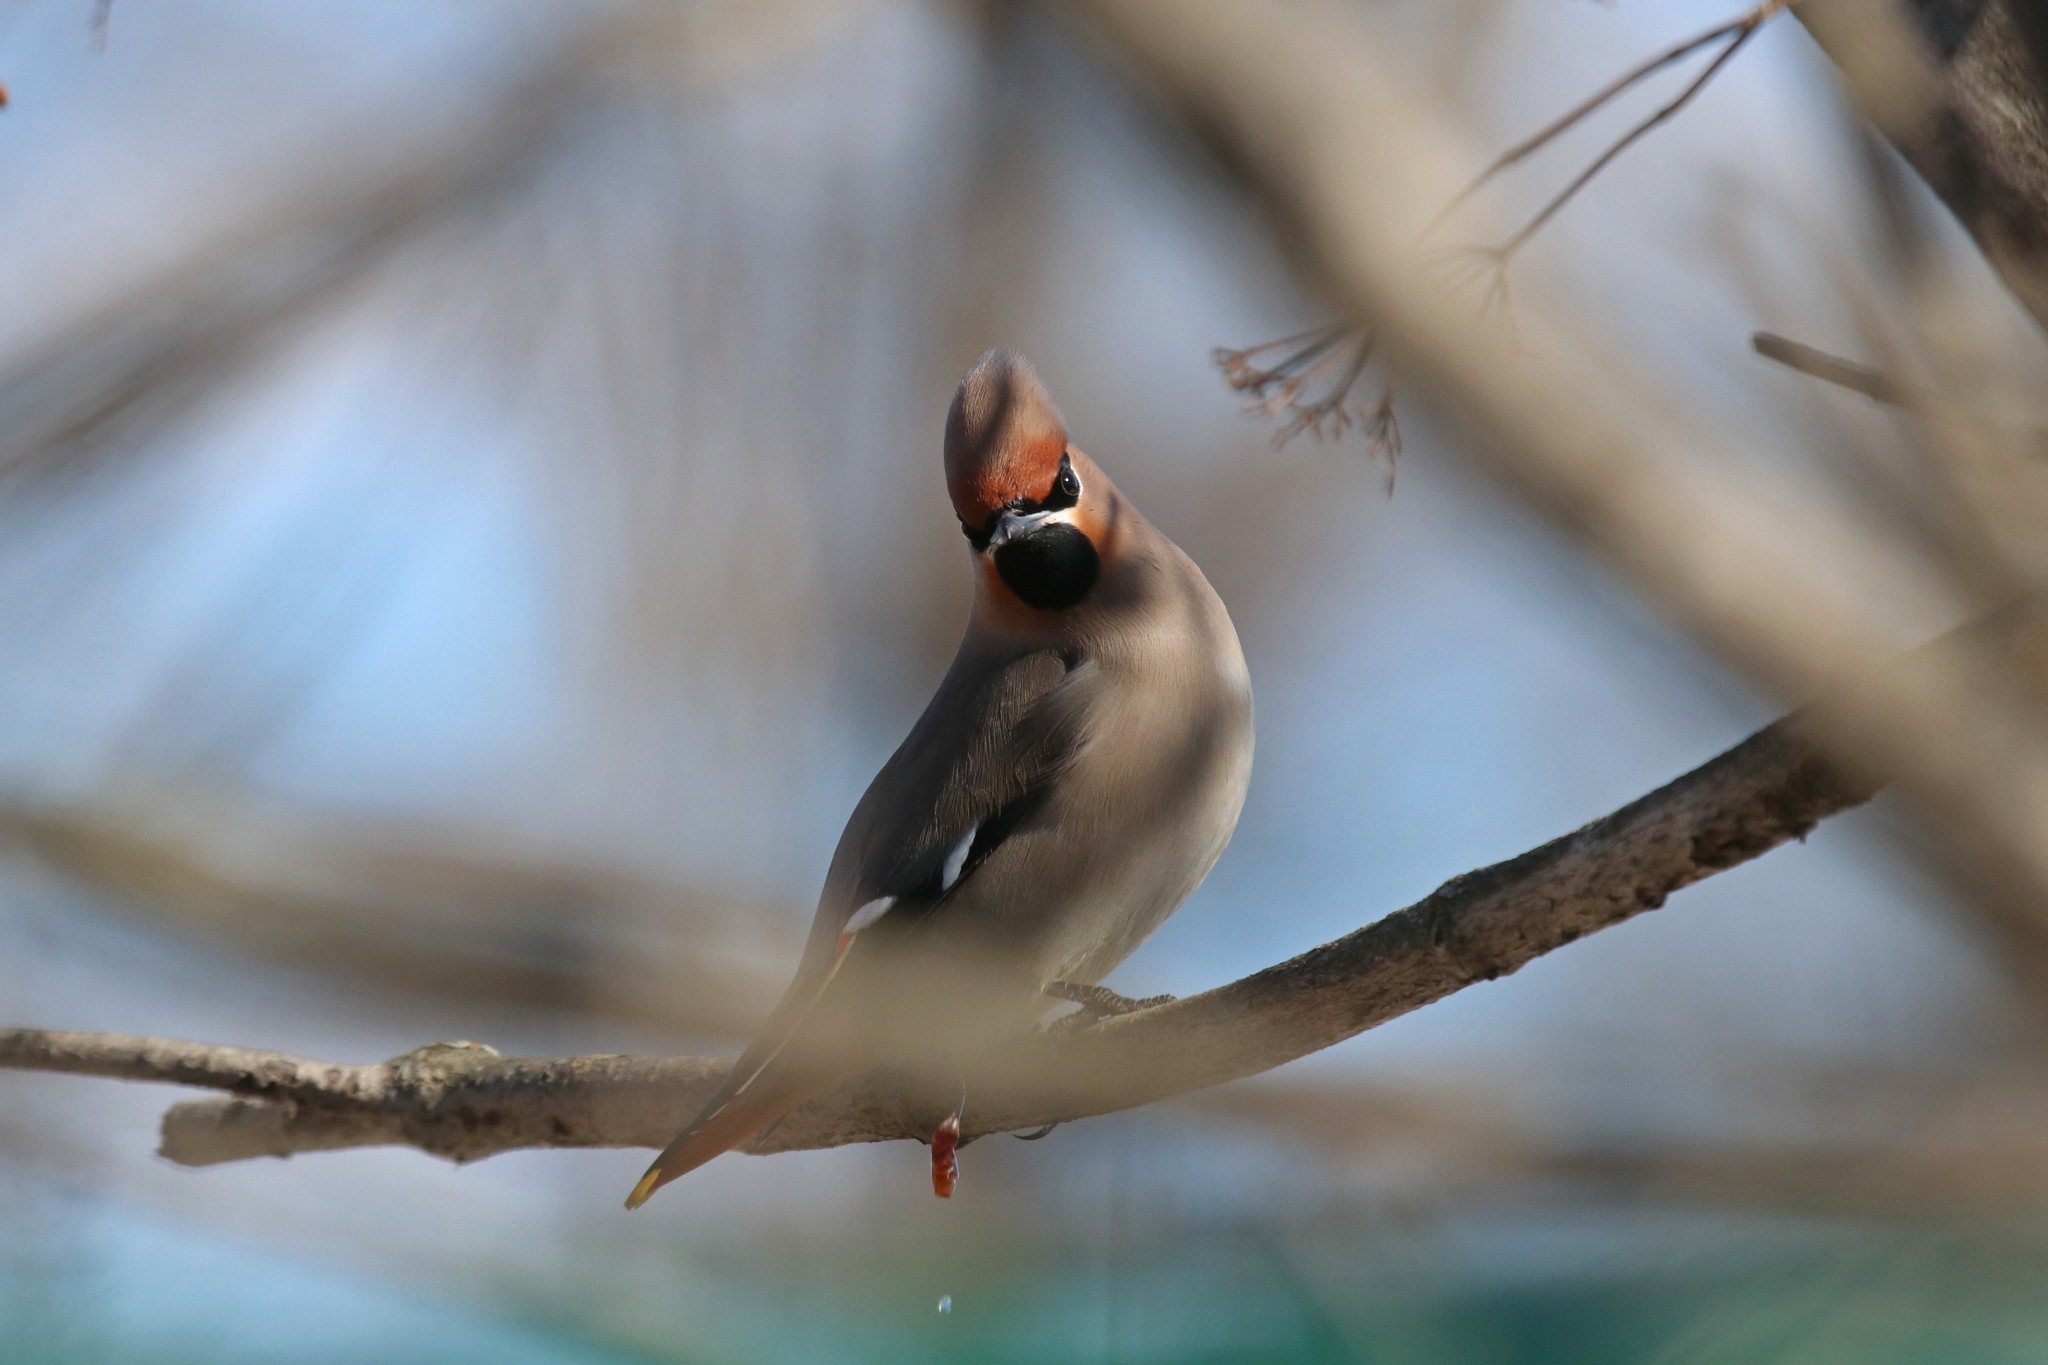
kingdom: Animalia
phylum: Chordata
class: Aves
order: Passeriformes
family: Bombycillidae
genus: Bombycilla
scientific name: Bombycilla garrulus
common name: Bohemian waxwing
